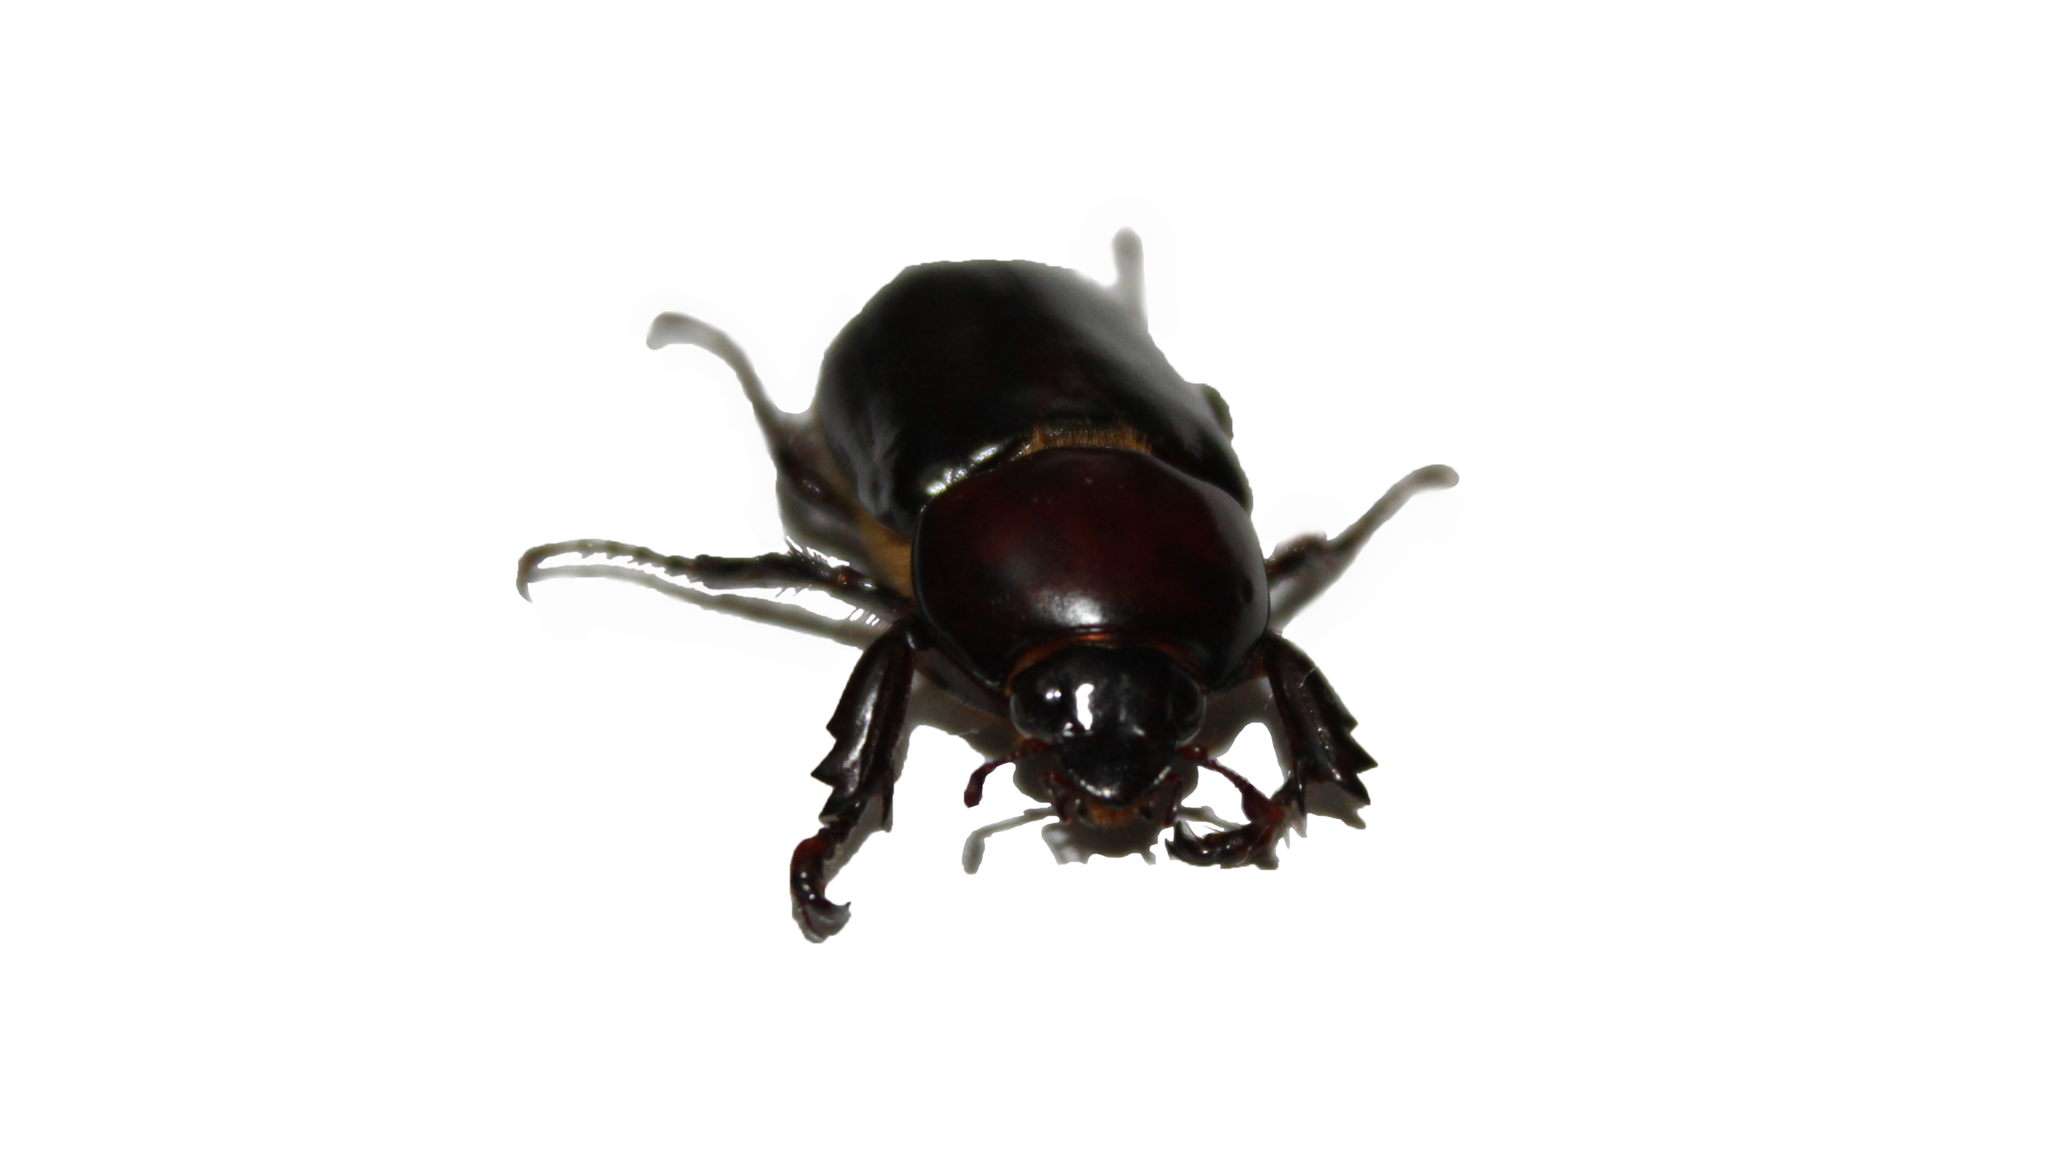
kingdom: Animalia
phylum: Arthropoda
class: Insecta
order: Coleoptera
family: Scarabaeidae
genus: Ancognatha
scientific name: Ancognatha scarabaeoides
